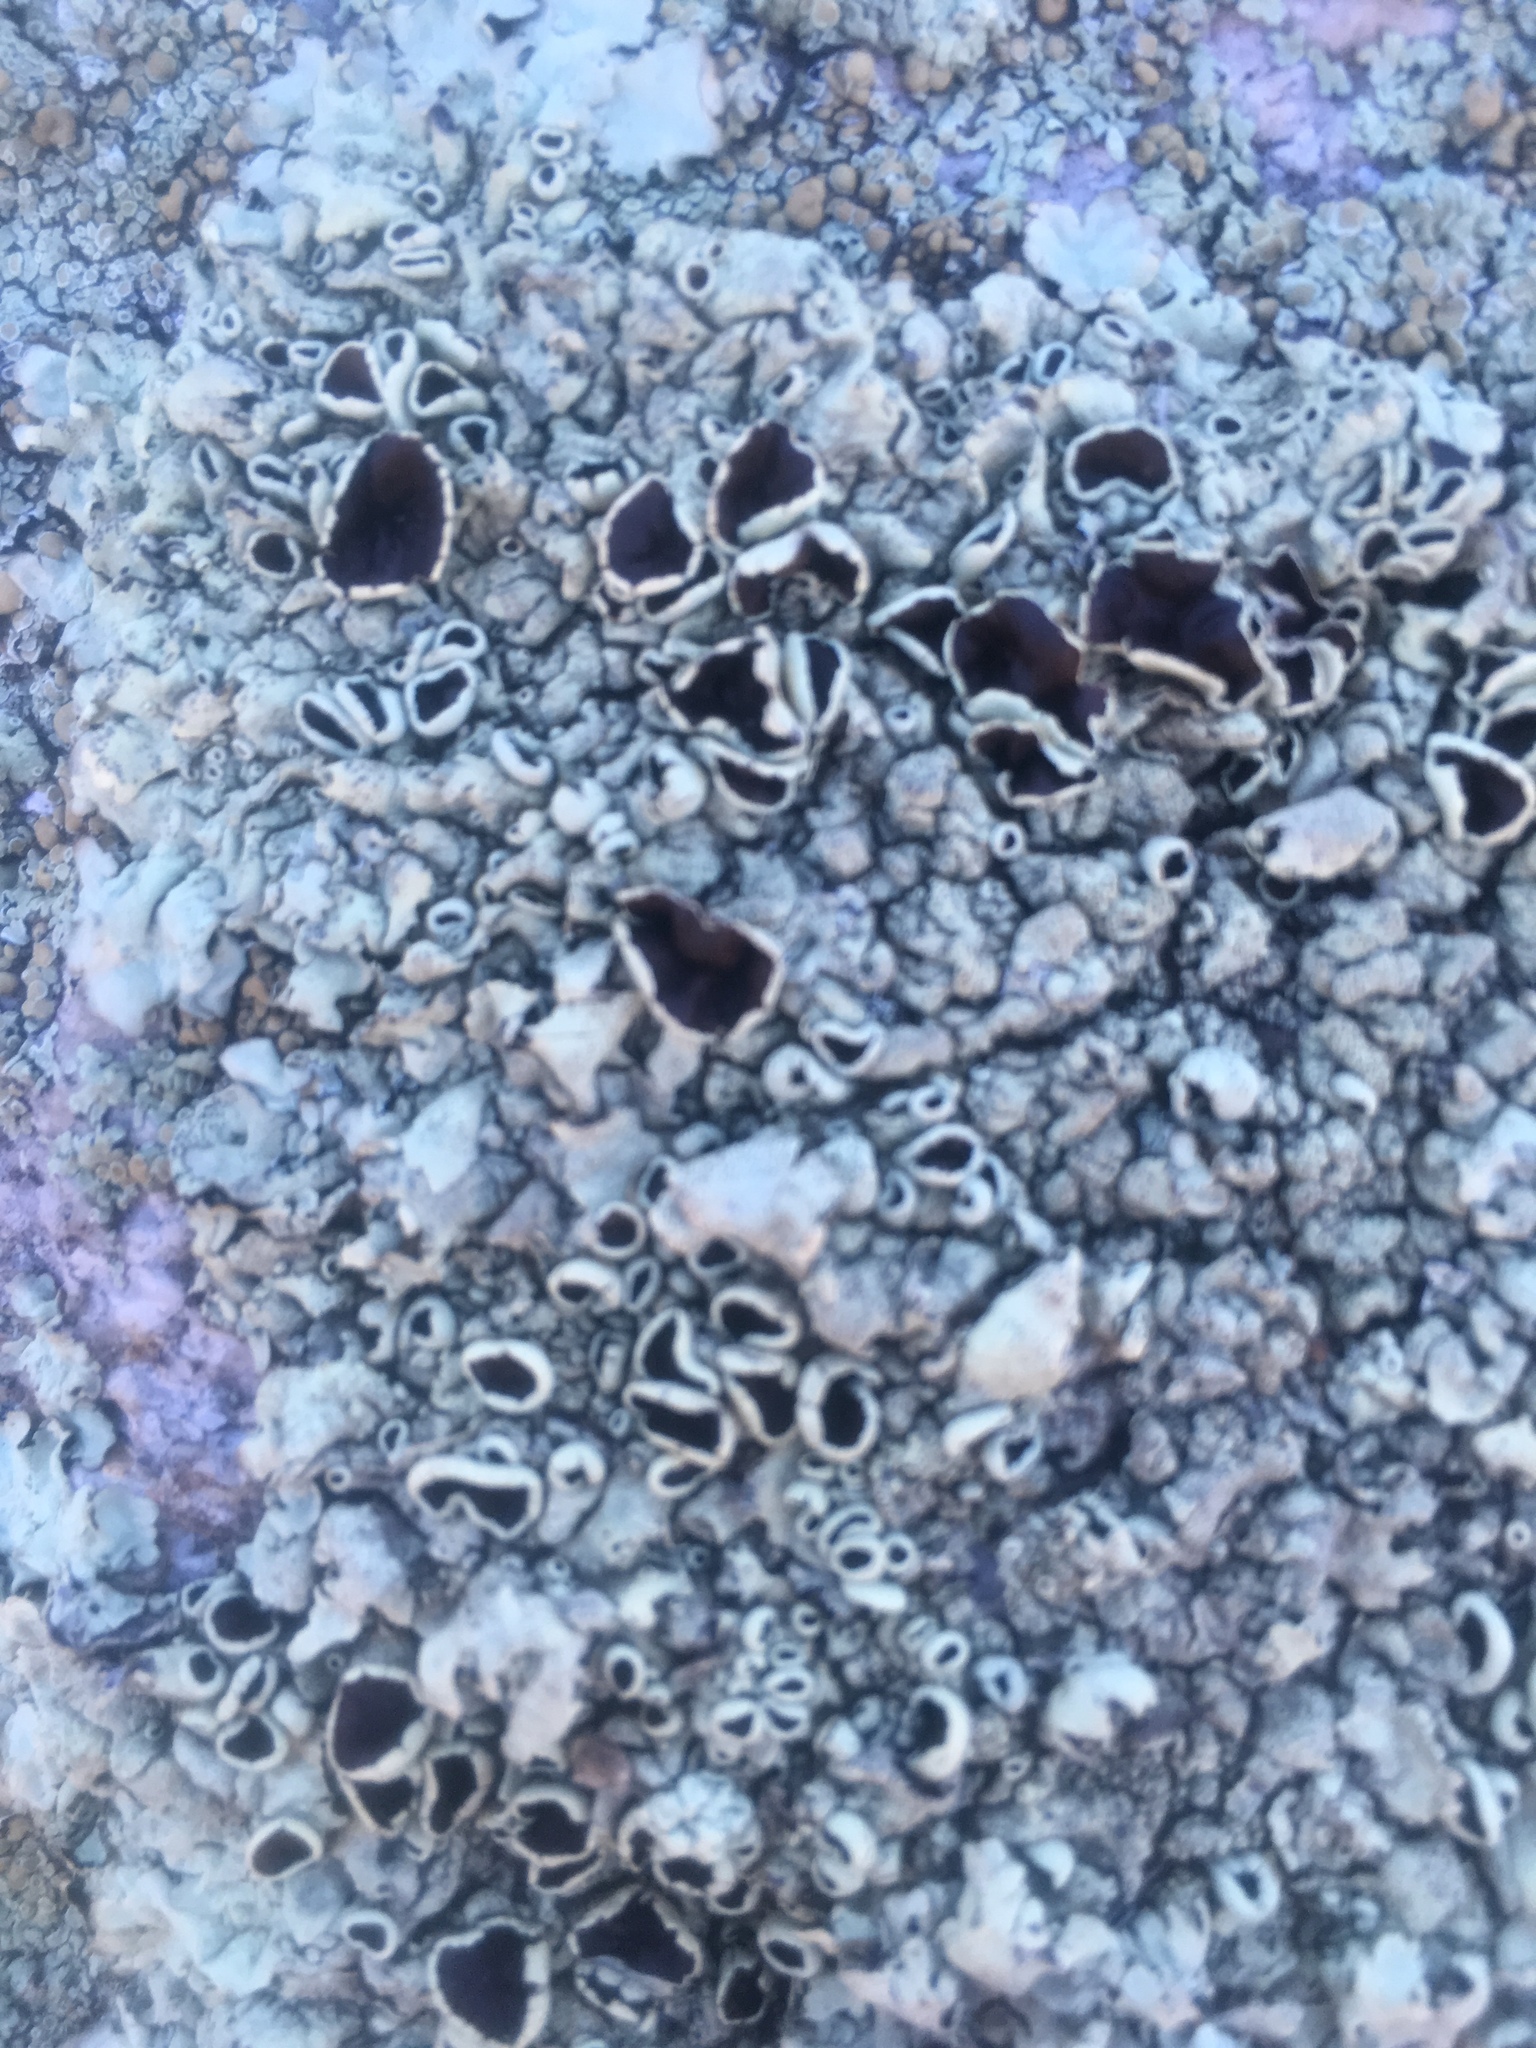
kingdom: Fungi
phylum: Ascomycota
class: Lecanoromycetes
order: Lecanorales
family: Parmeliaceae
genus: Xanthoparmelia
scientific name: Xanthoparmelia cumberlandia
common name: Cumberland rock shield
